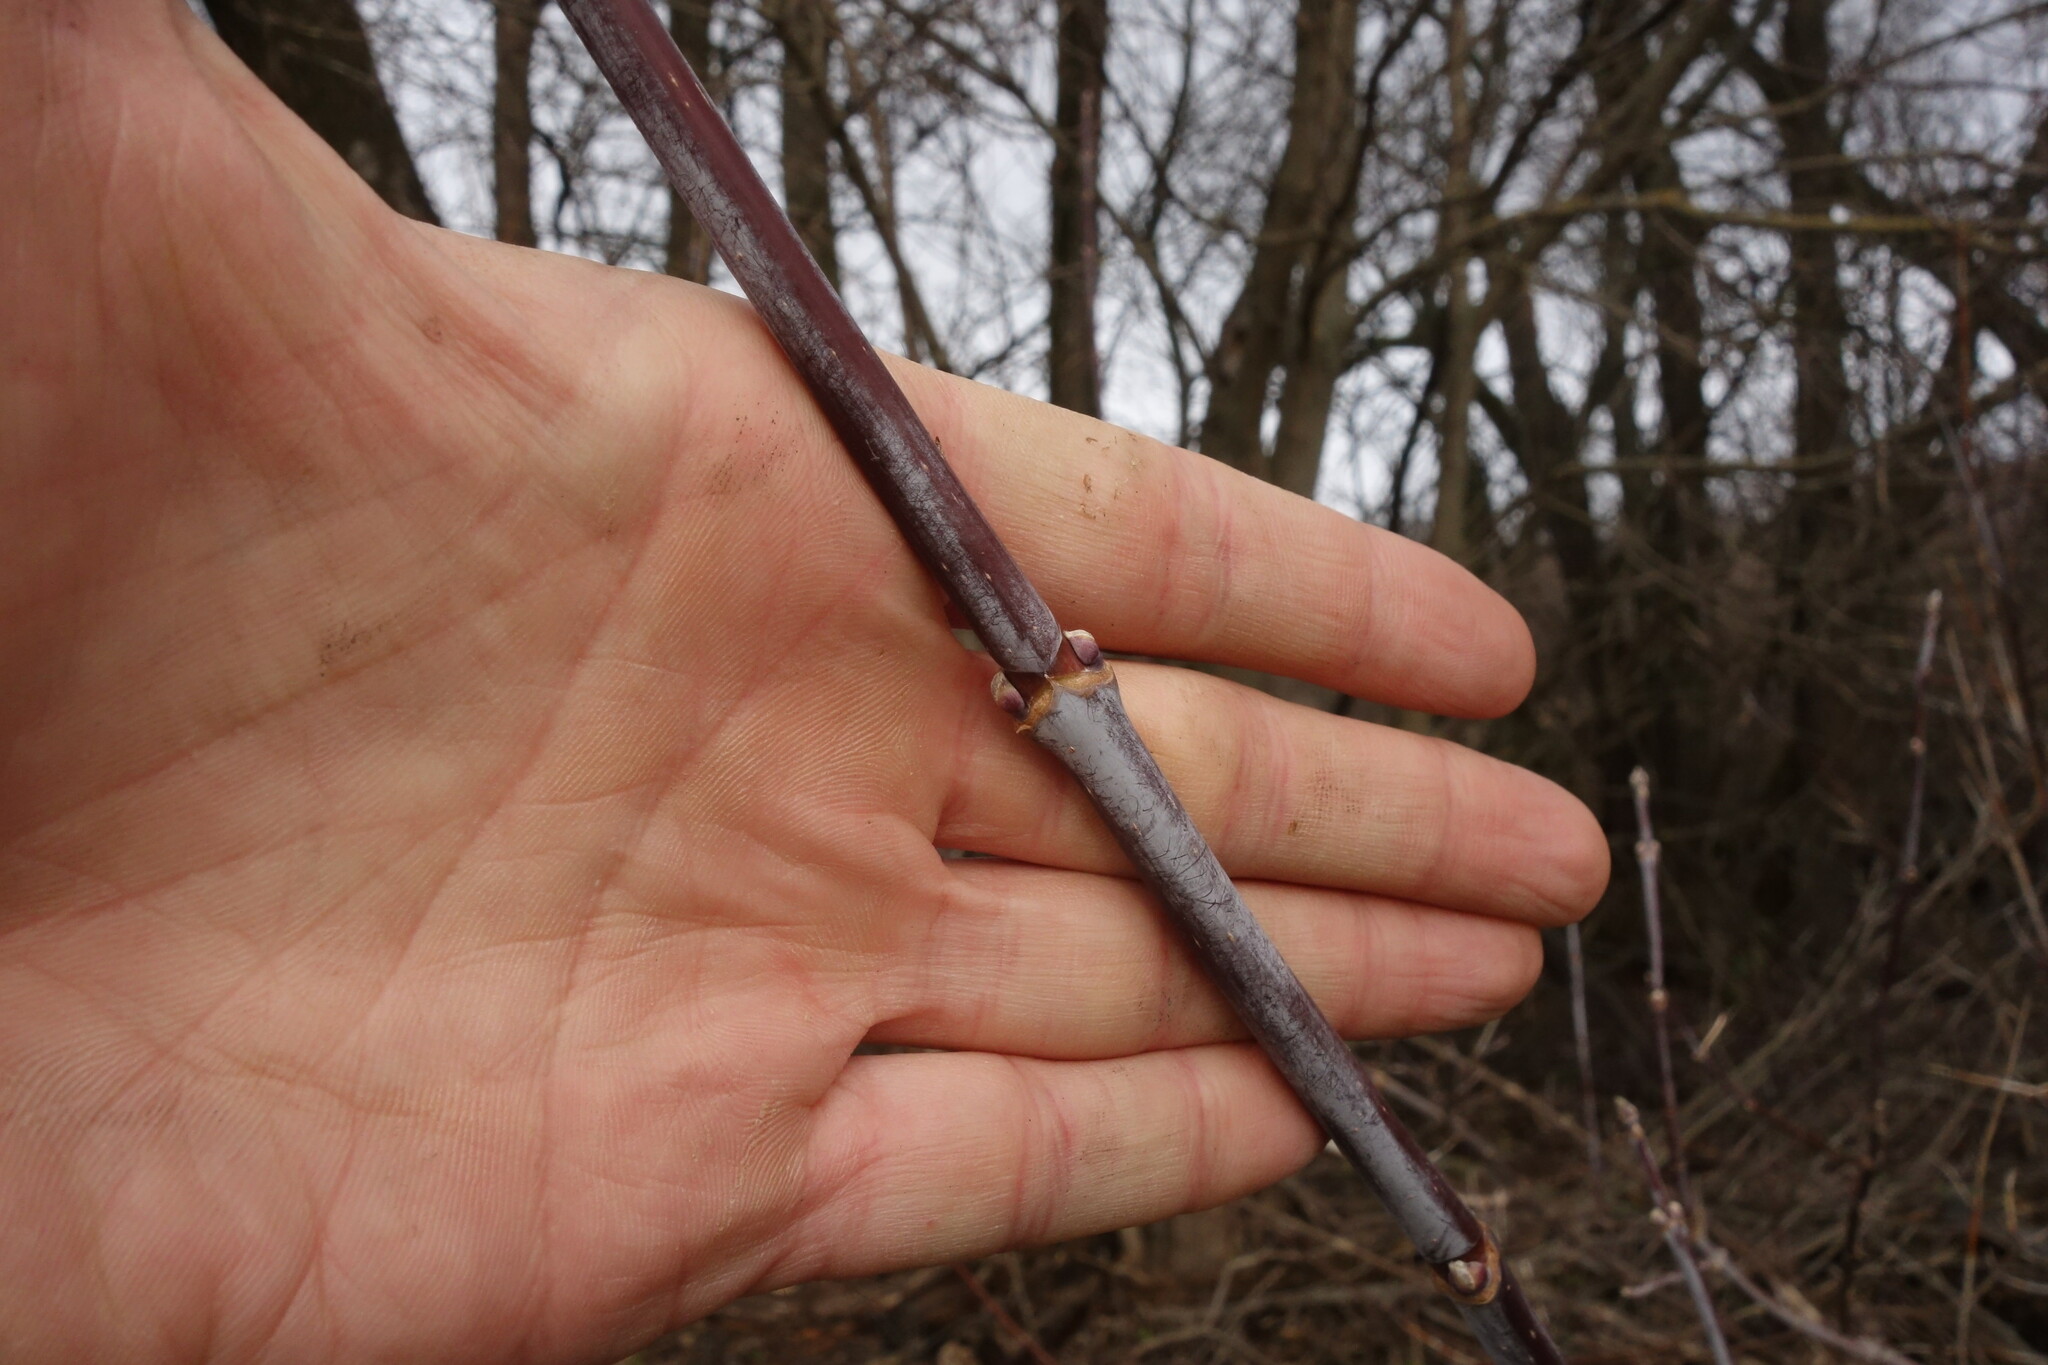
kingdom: Plantae
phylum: Tracheophyta
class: Magnoliopsida
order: Sapindales
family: Sapindaceae
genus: Acer
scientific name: Acer negundo
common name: Ashleaf maple
